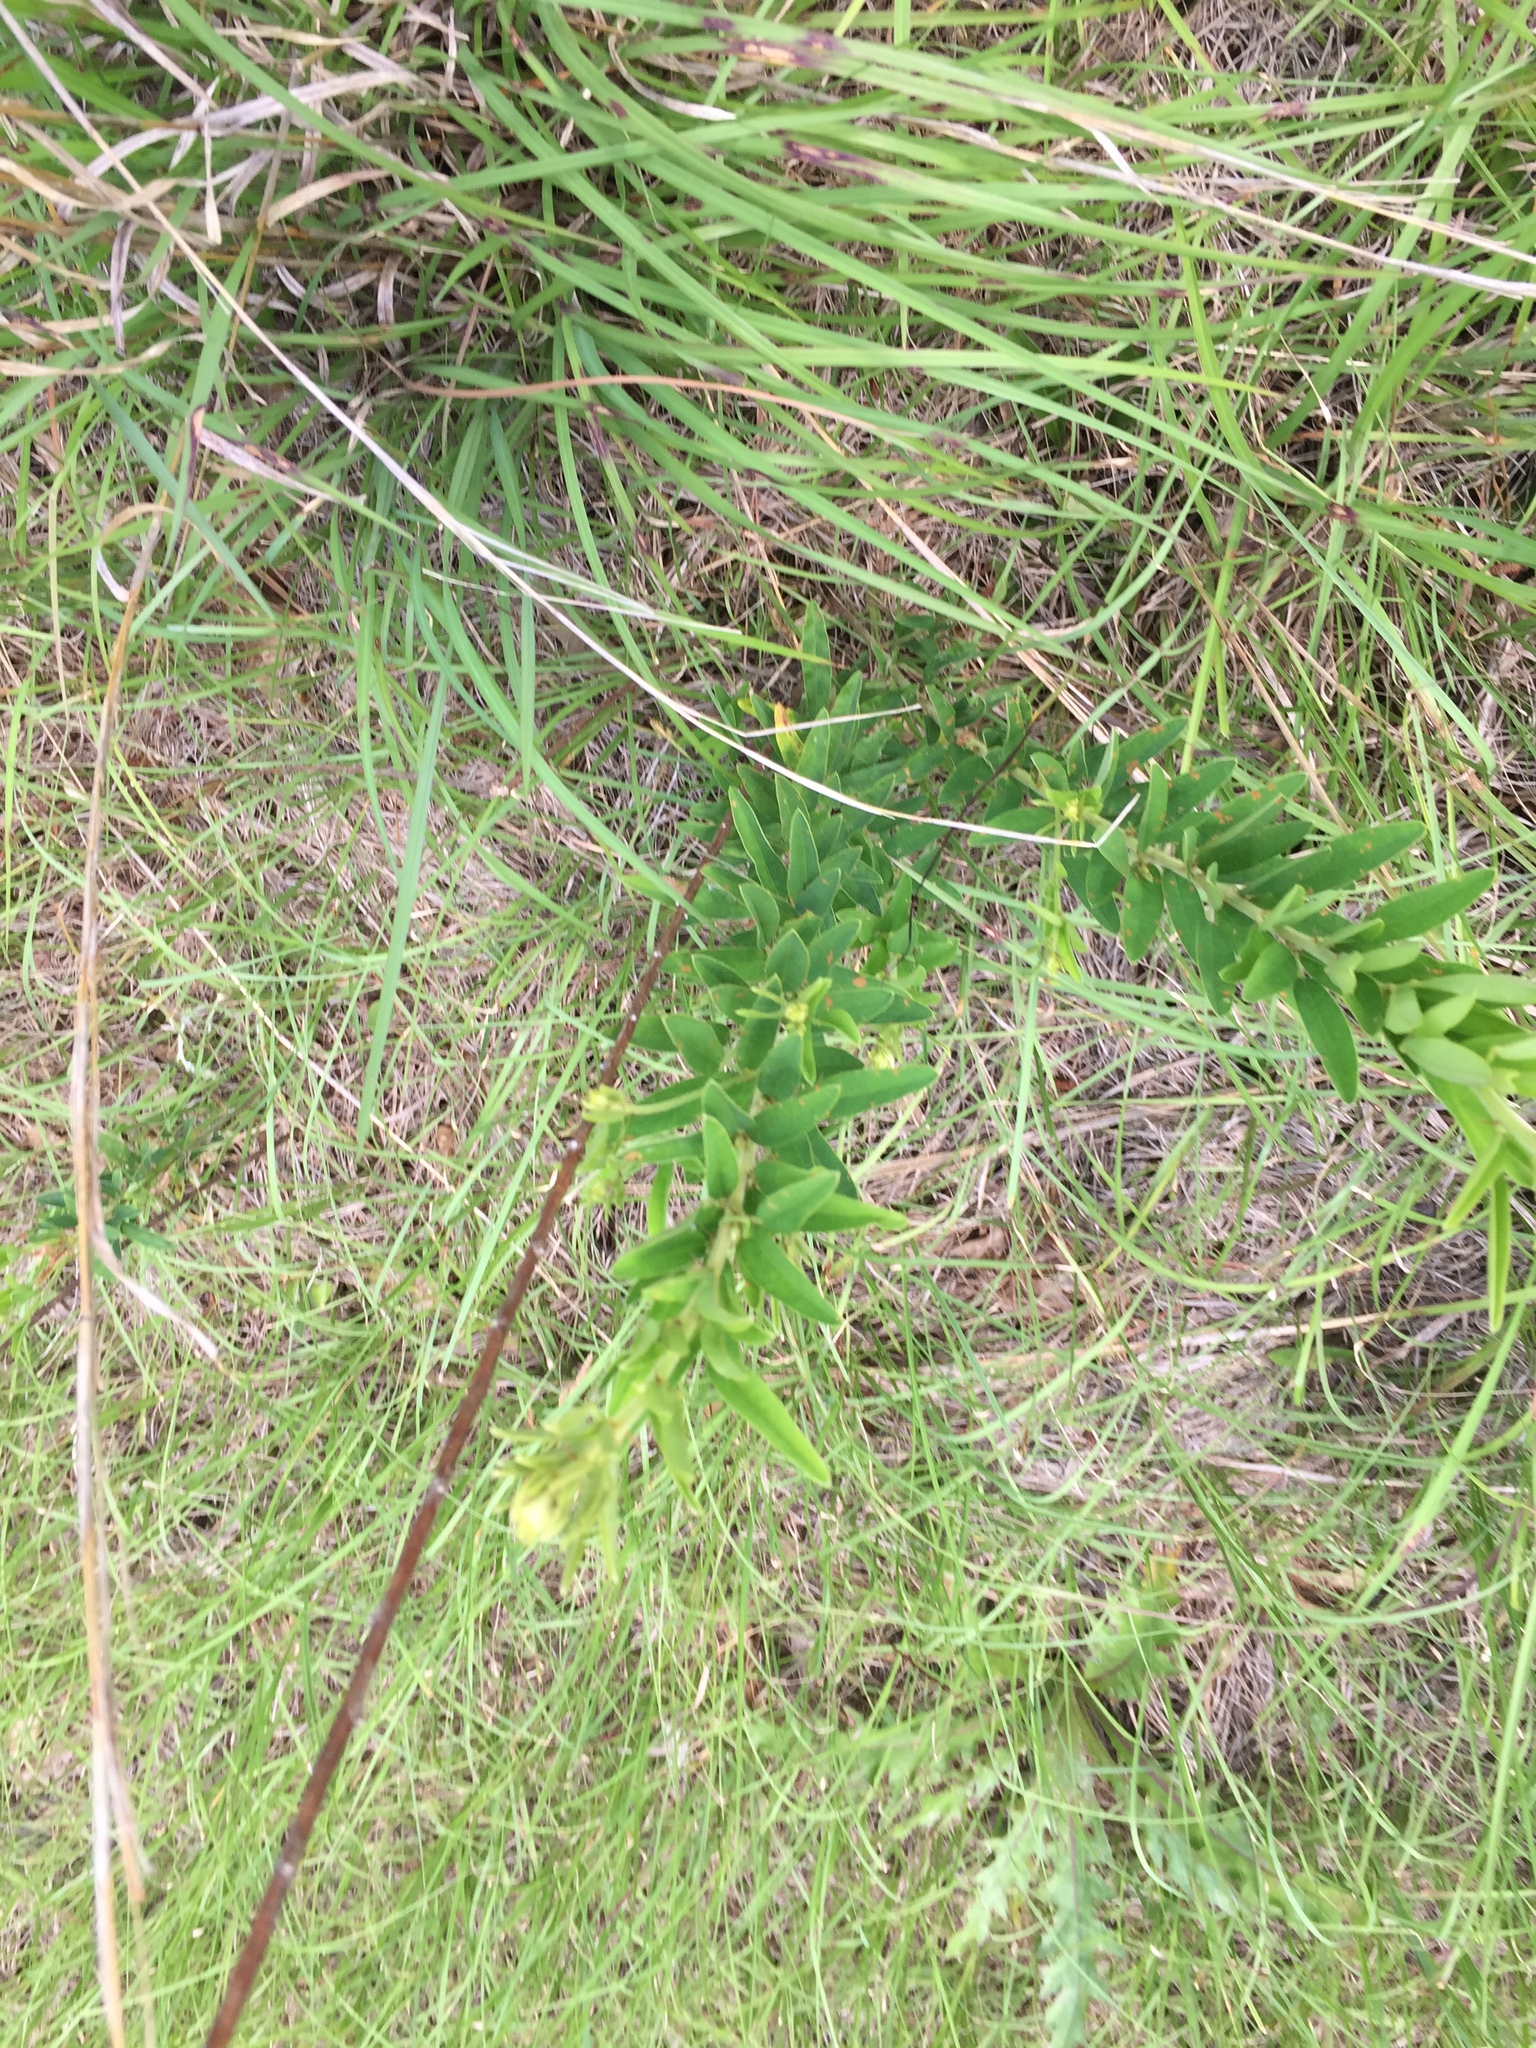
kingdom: Plantae
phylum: Tracheophyta
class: Magnoliopsida
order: Fabales
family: Fabaceae
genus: Lespedeza
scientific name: Lespedeza capitata
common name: Dusty clover
